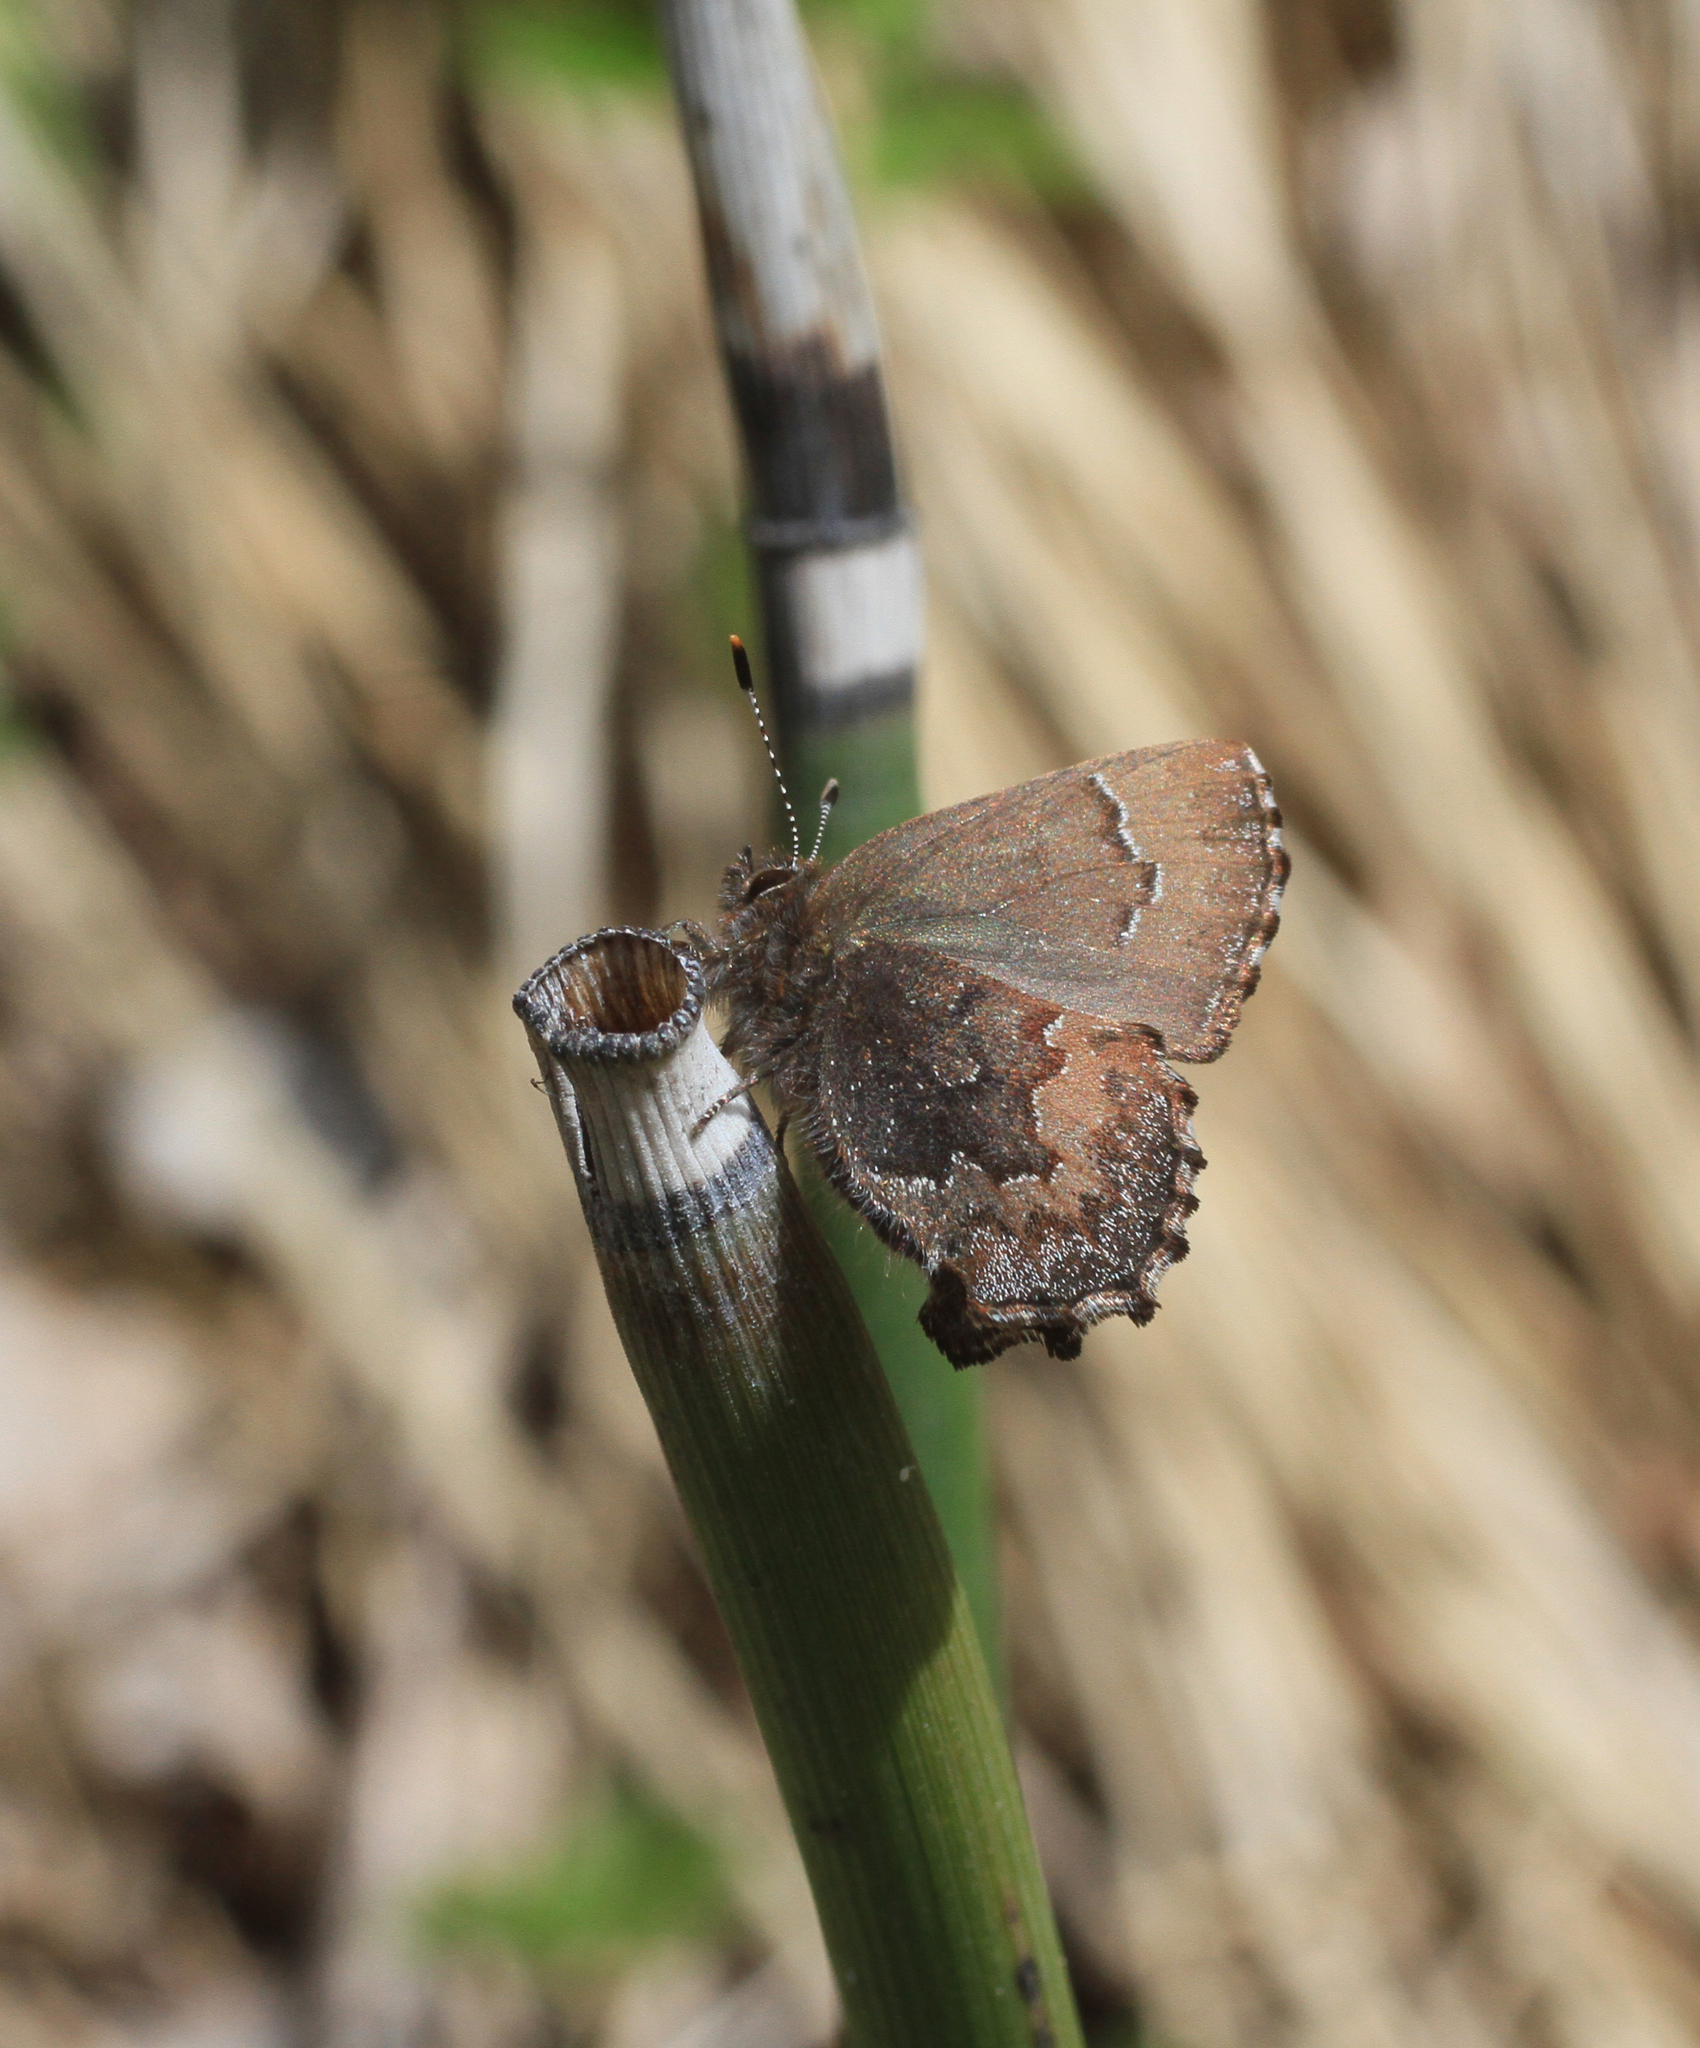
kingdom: Plantae
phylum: Tracheophyta
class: Polypodiopsida
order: Equisetales
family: Equisetaceae
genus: Equisetum
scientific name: Equisetum hyemale
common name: Rough horsetail
